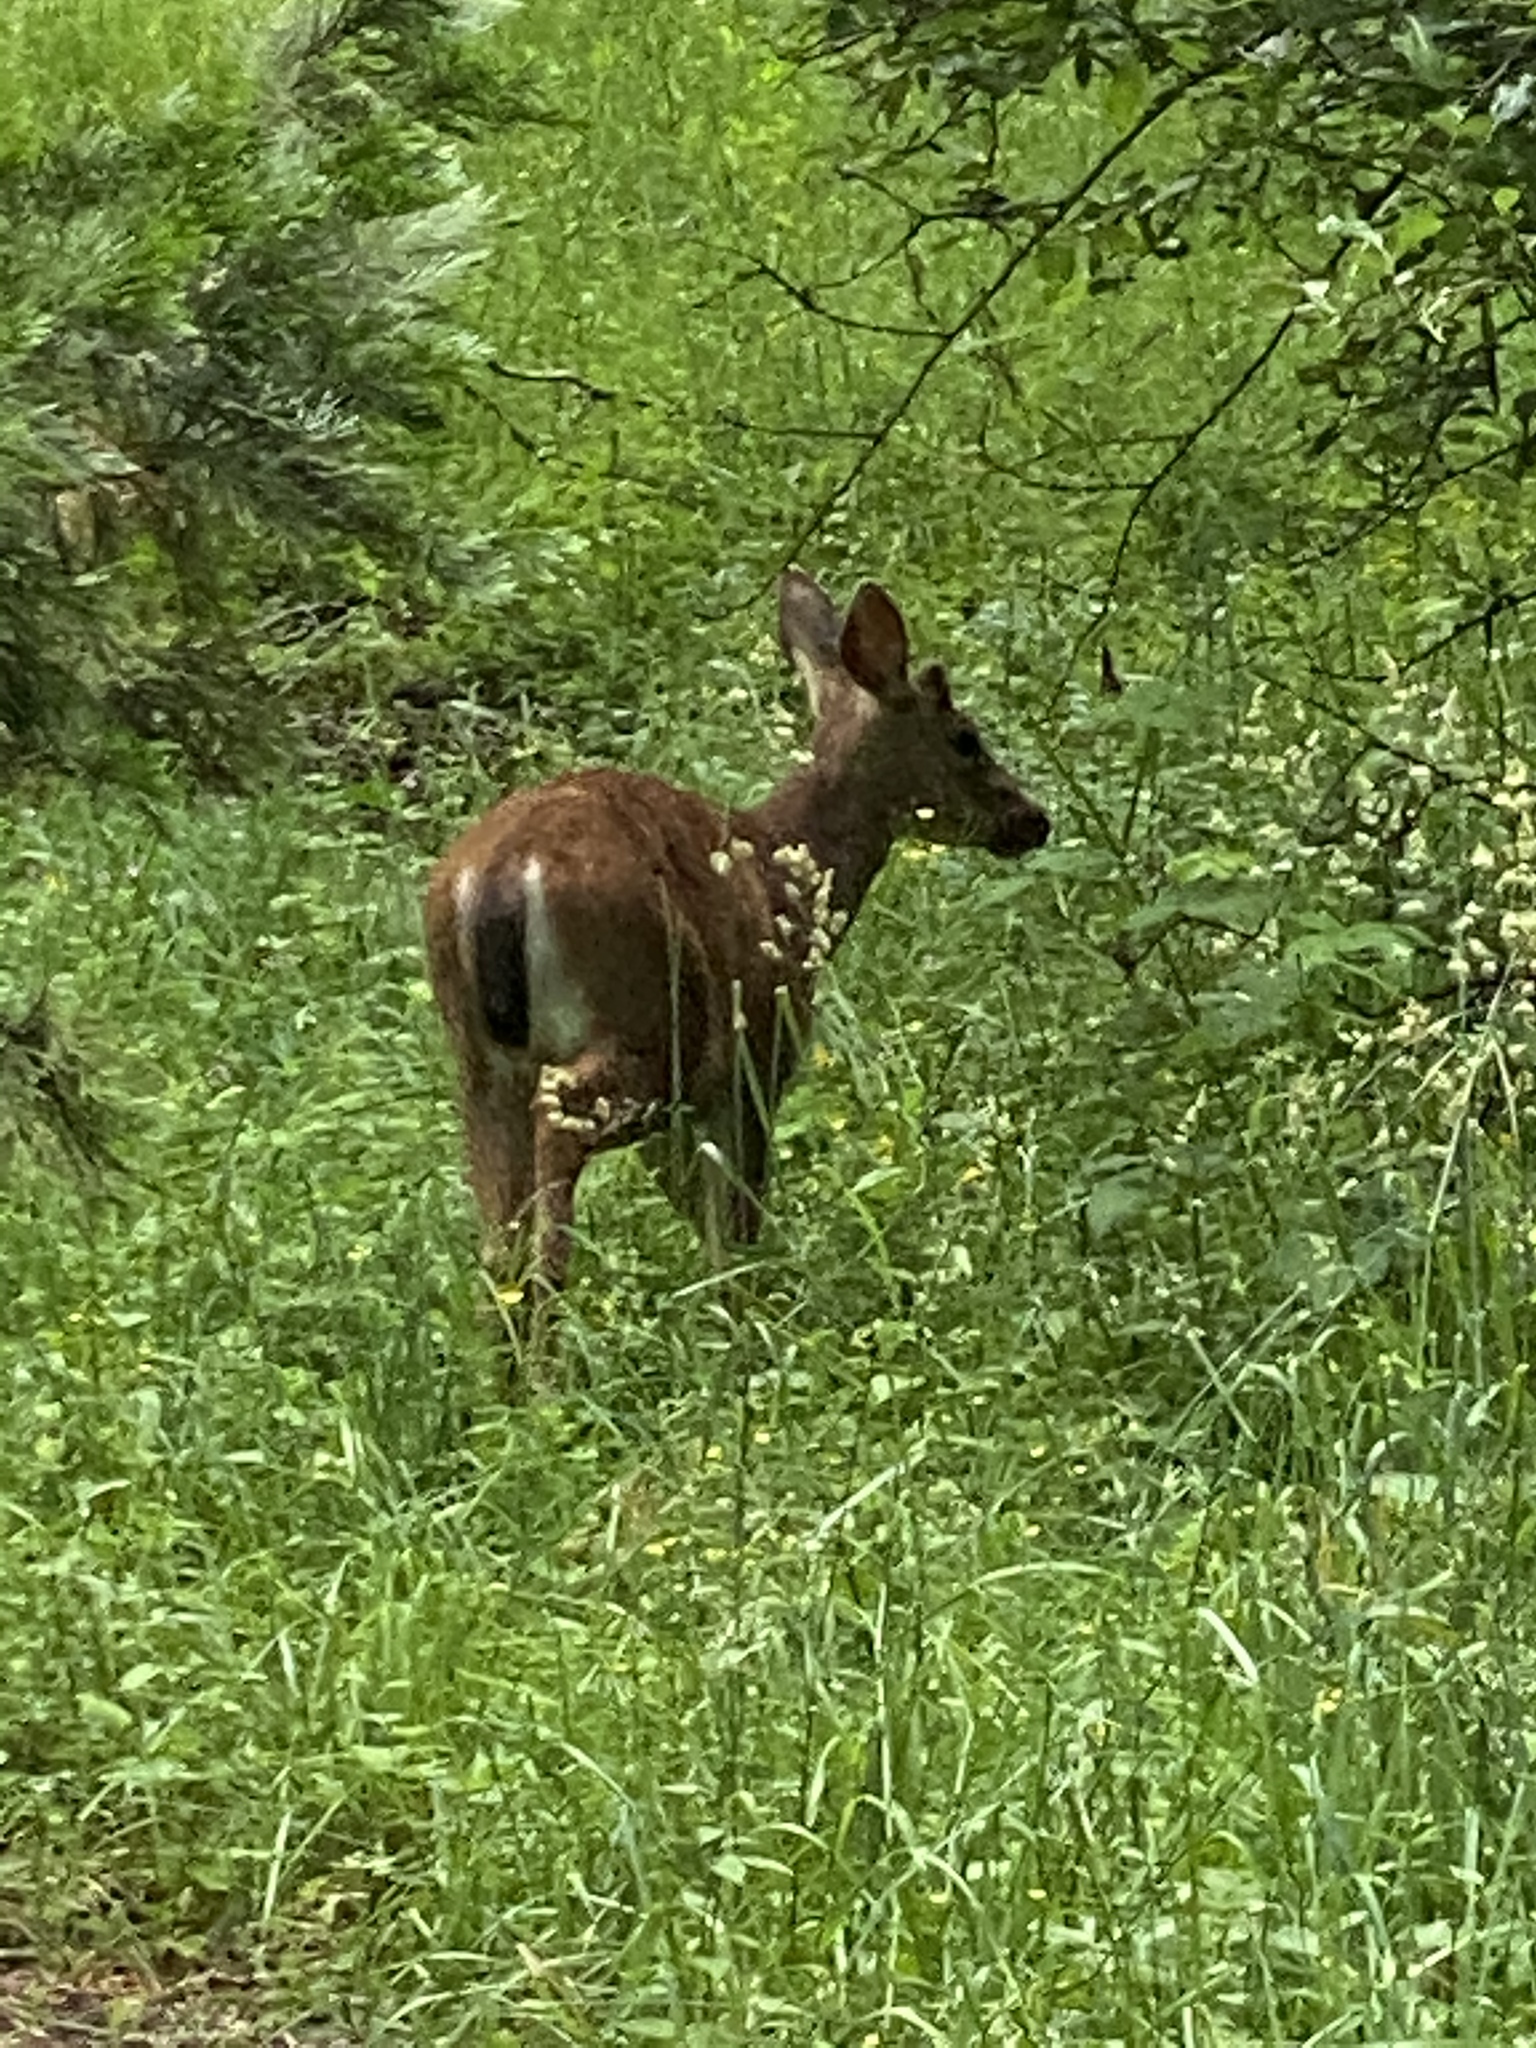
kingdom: Animalia
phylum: Chordata
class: Mammalia
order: Artiodactyla
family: Cervidae
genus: Odocoileus
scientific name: Odocoileus hemionus
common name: Mule deer
